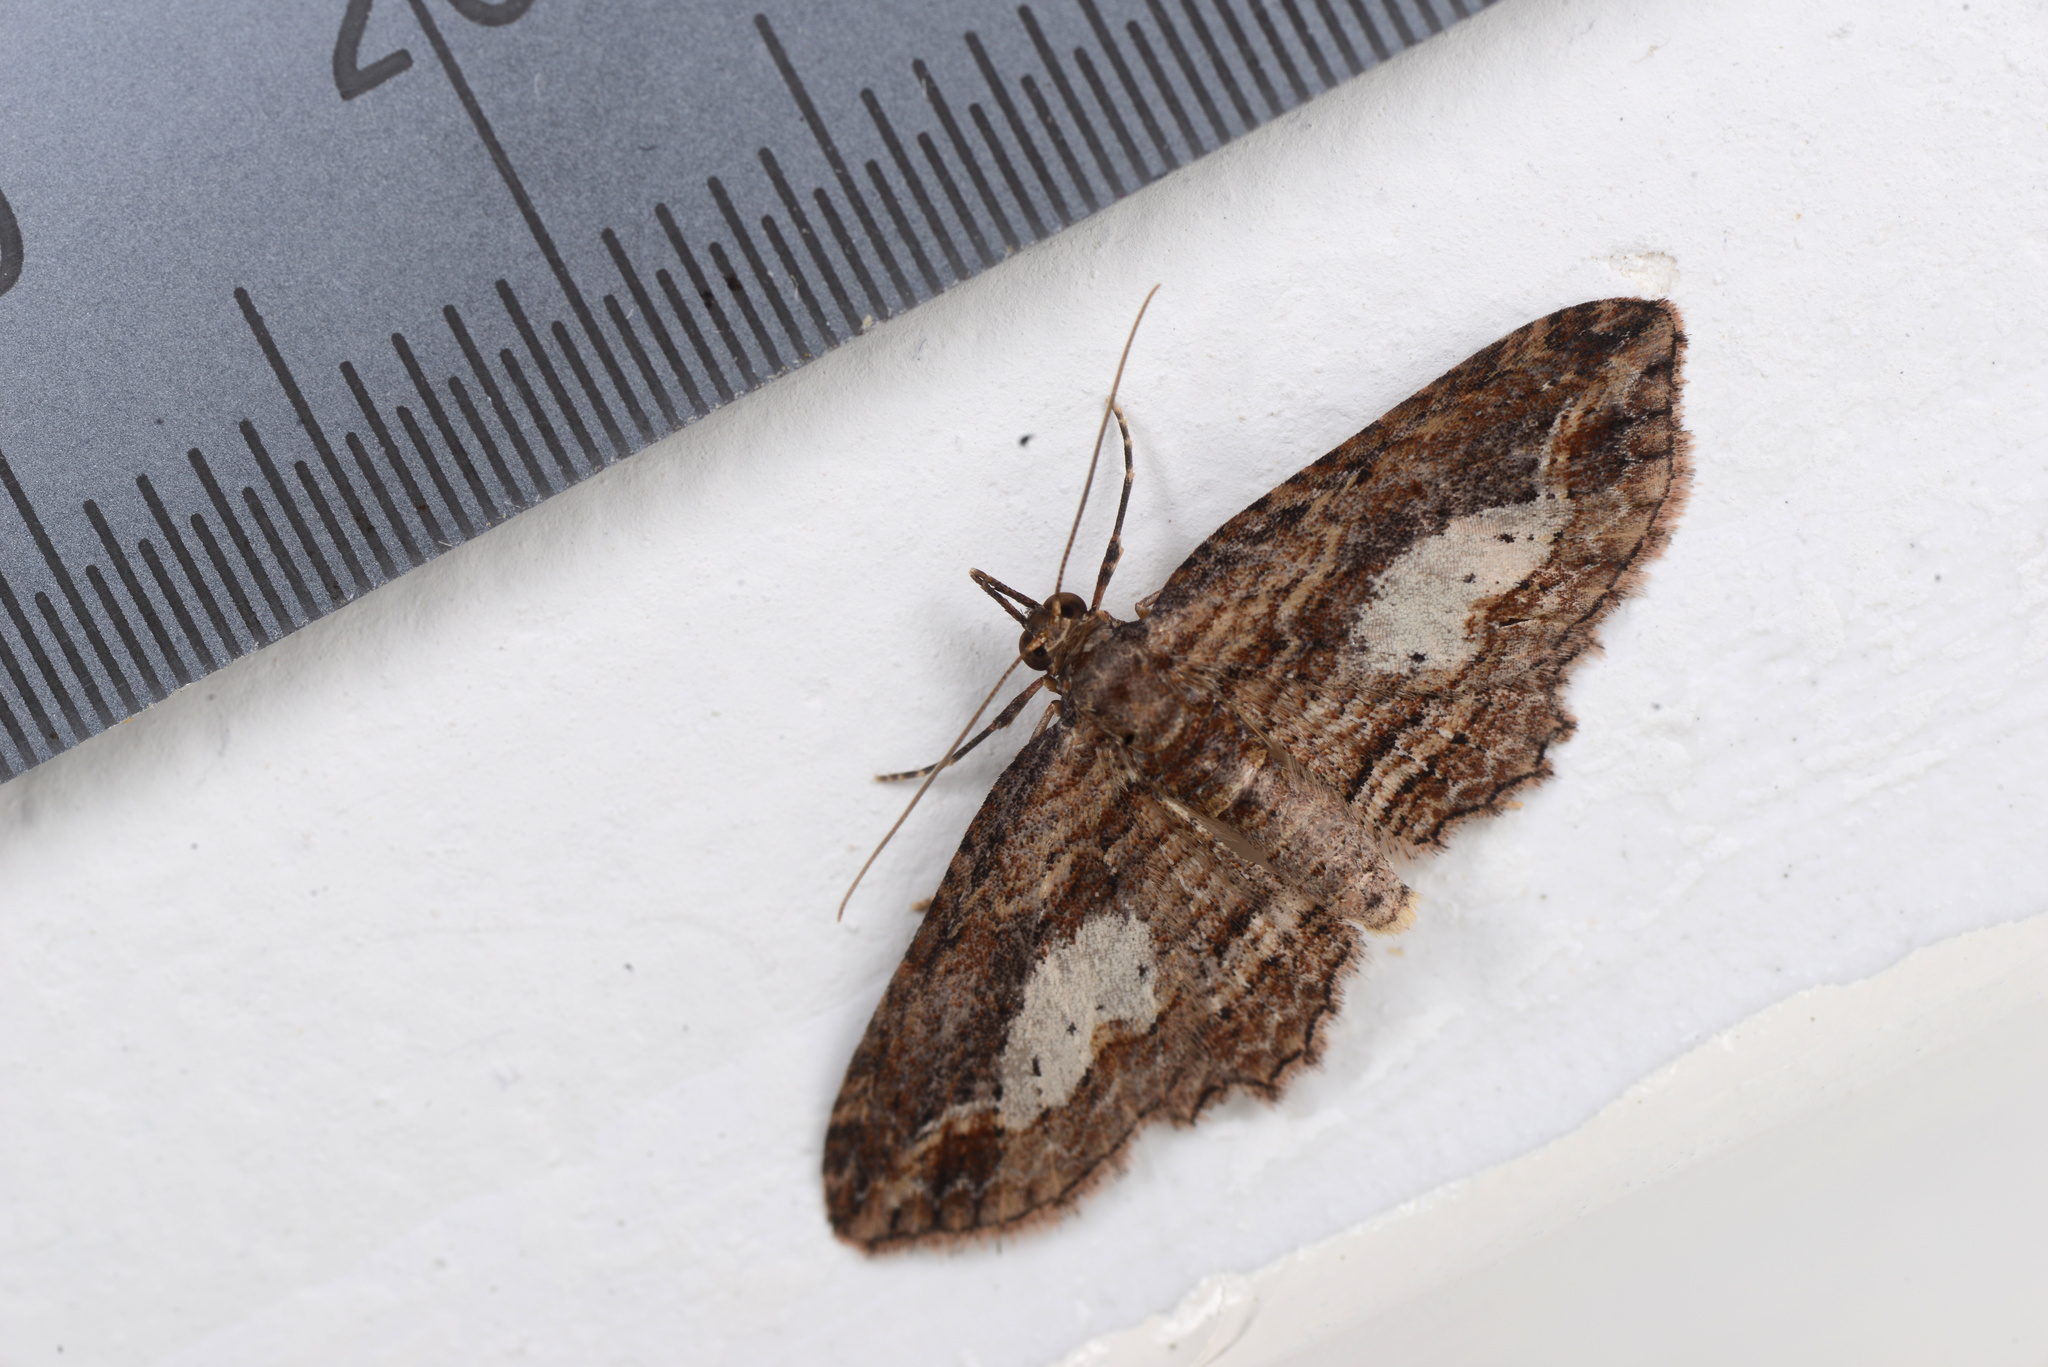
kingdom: Animalia
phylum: Arthropoda
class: Insecta
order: Lepidoptera
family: Geometridae
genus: Chloroclystis
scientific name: Chloroclystis filata
